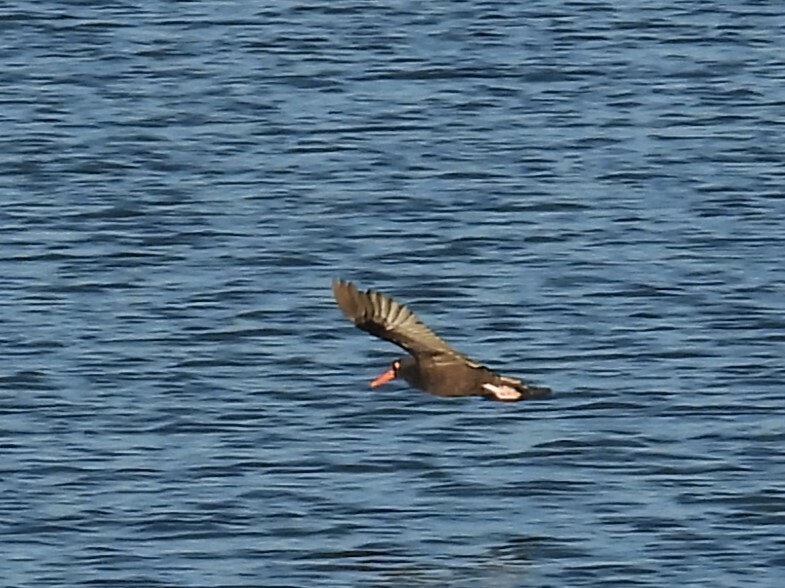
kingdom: Animalia
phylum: Chordata
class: Aves
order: Charadriiformes
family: Haematopodidae
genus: Haematopus
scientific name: Haematopus bachmani
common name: Black oystercatcher
